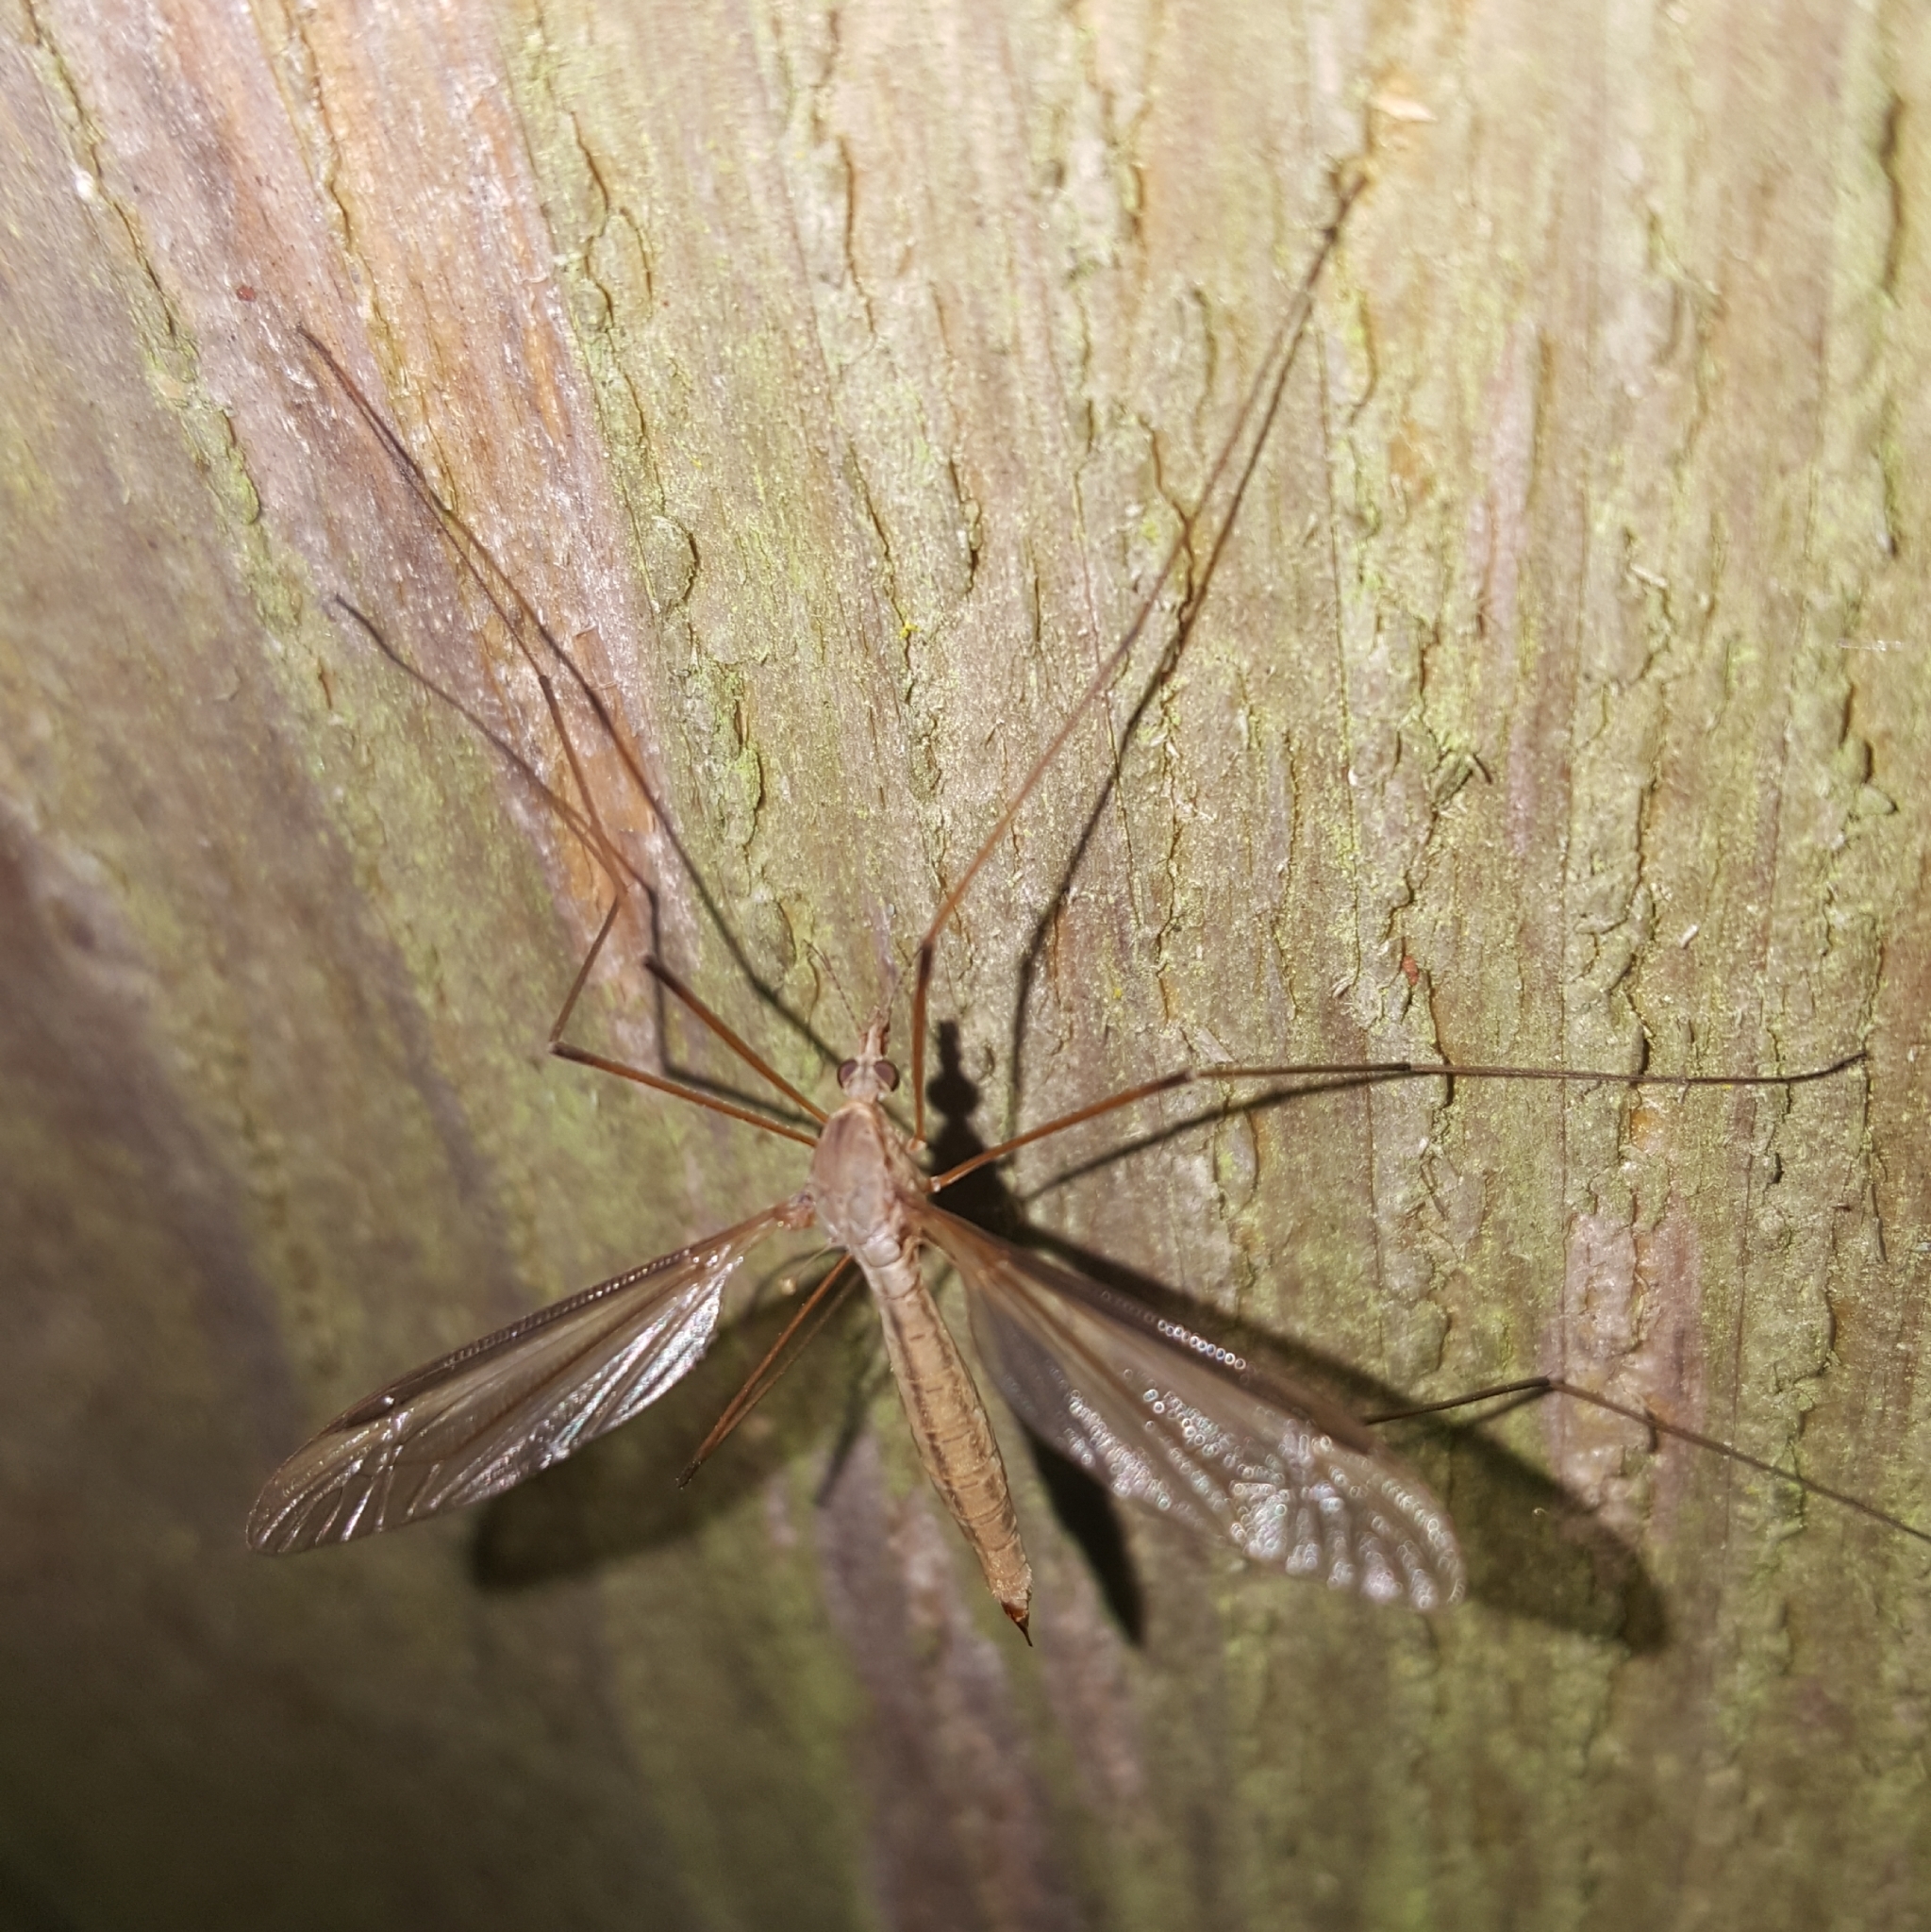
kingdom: Animalia
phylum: Arthropoda
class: Insecta
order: Diptera
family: Tipulidae
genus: Tipula
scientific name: Tipula
